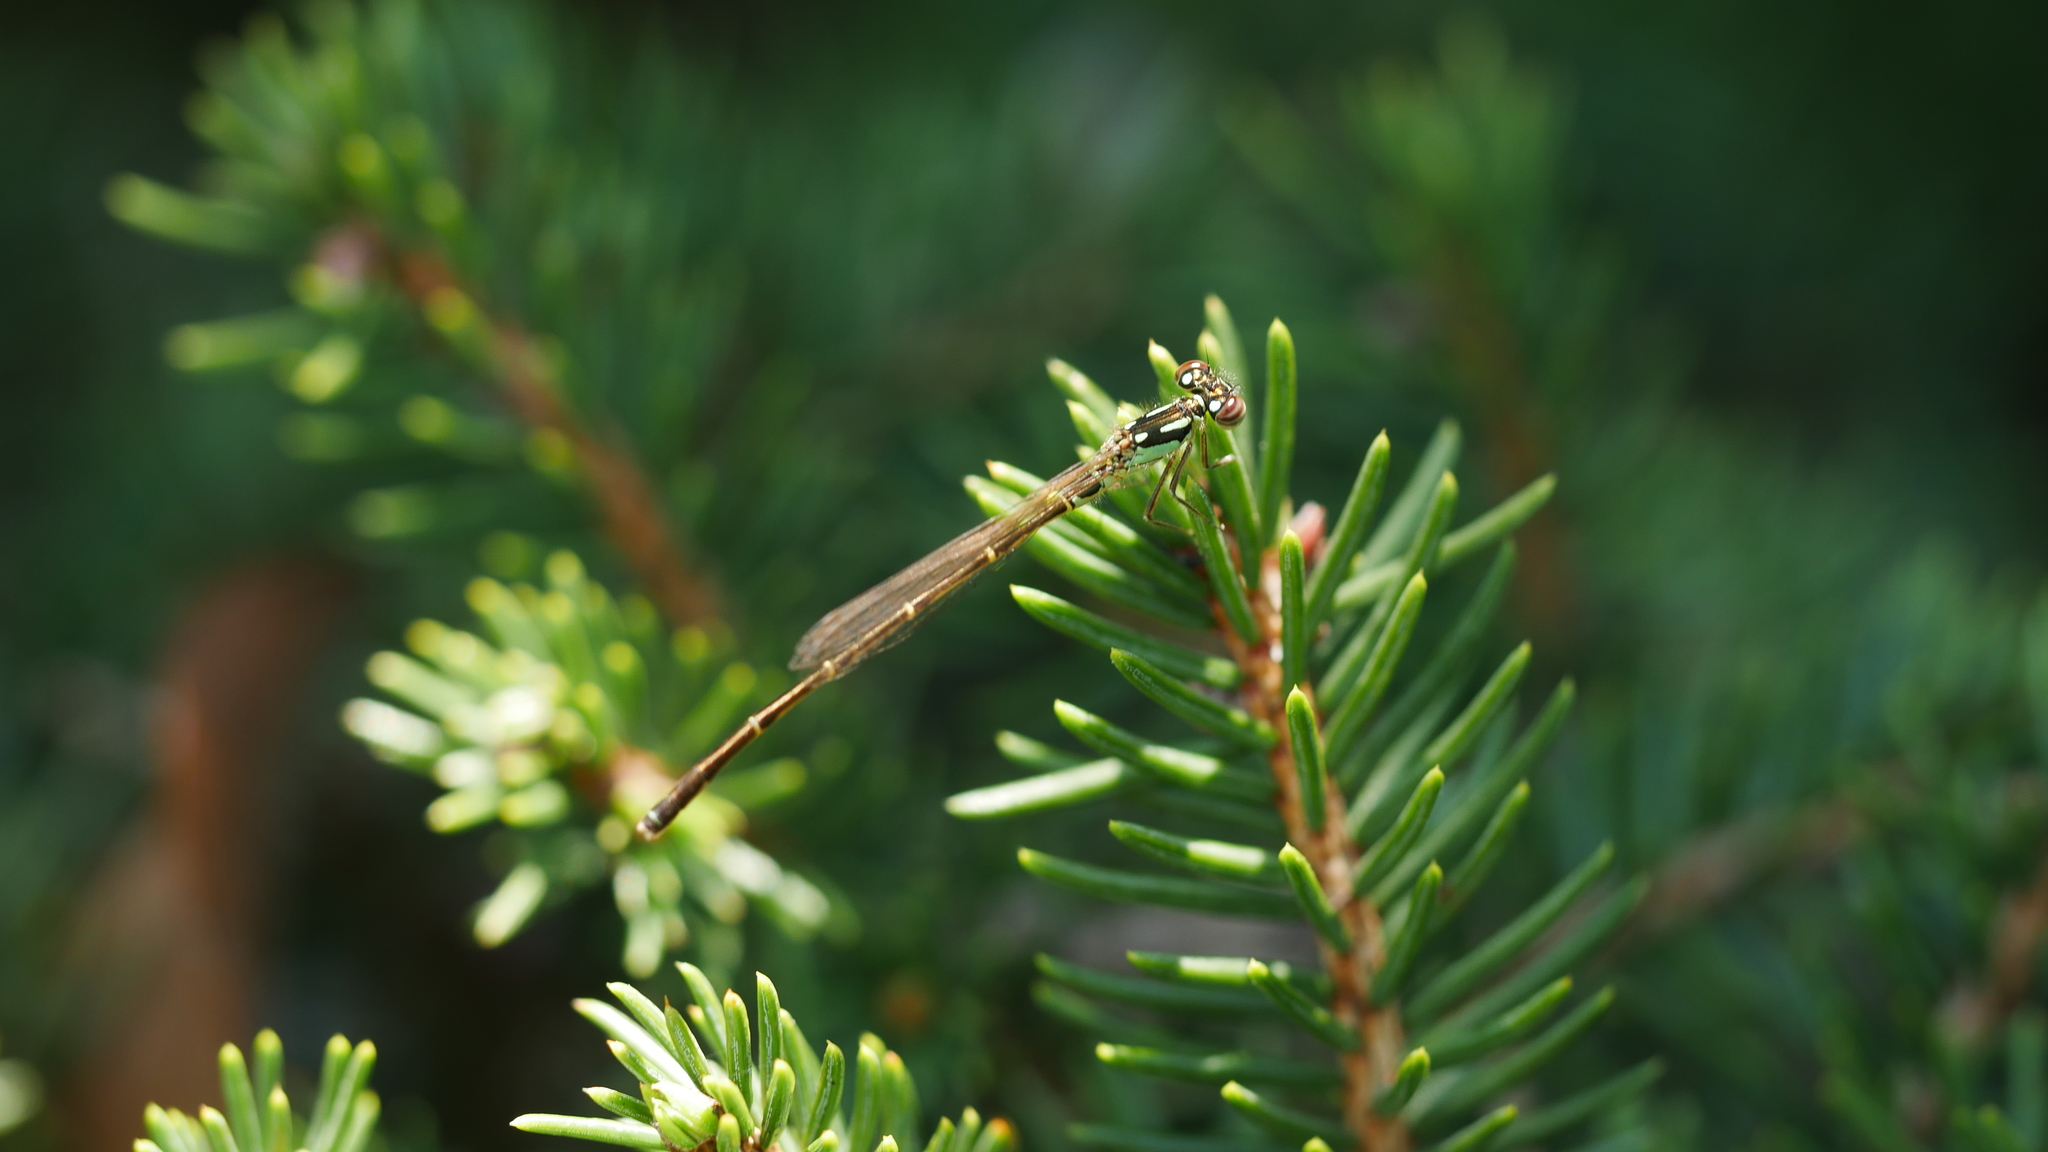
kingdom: Animalia
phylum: Arthropoda
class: Insecta
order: Odonata
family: Coenagrionidae
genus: Ischnura
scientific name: Ischnura posita
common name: Fragile forktail
